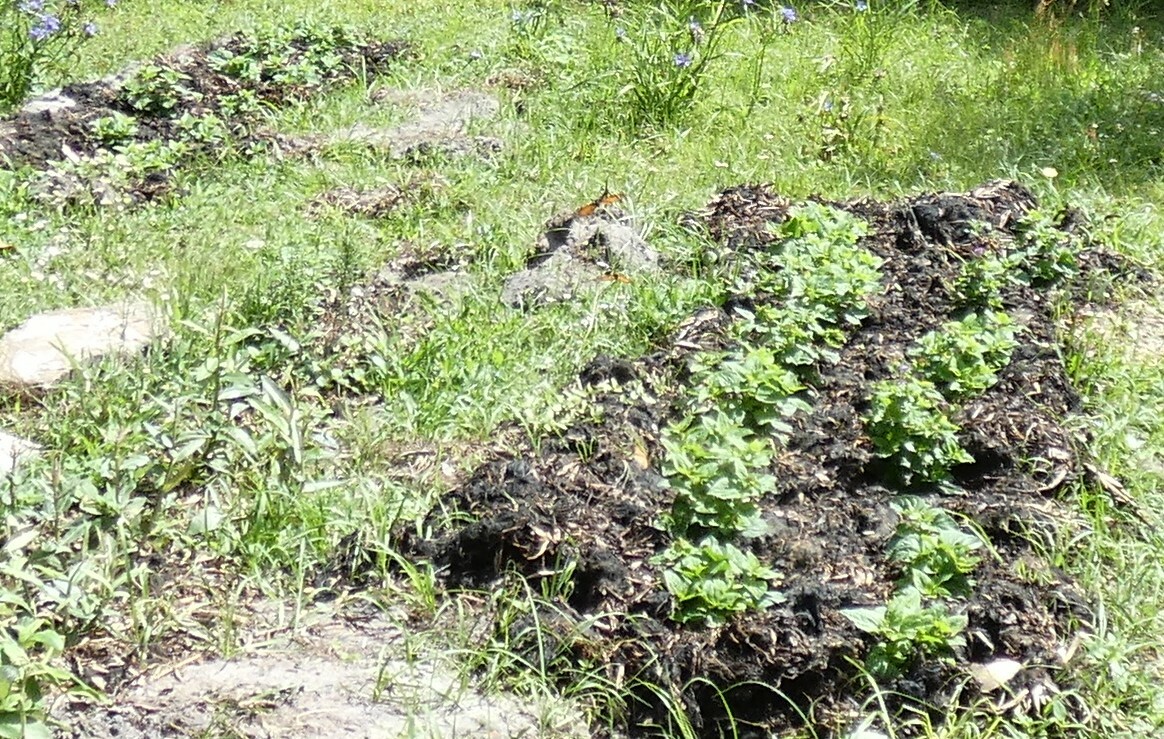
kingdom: Animalia
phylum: Arthropoda
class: Insecta
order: Lepidoptera
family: Nymphalidae
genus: Danaus
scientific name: Danaus plexippus
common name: Monarch
